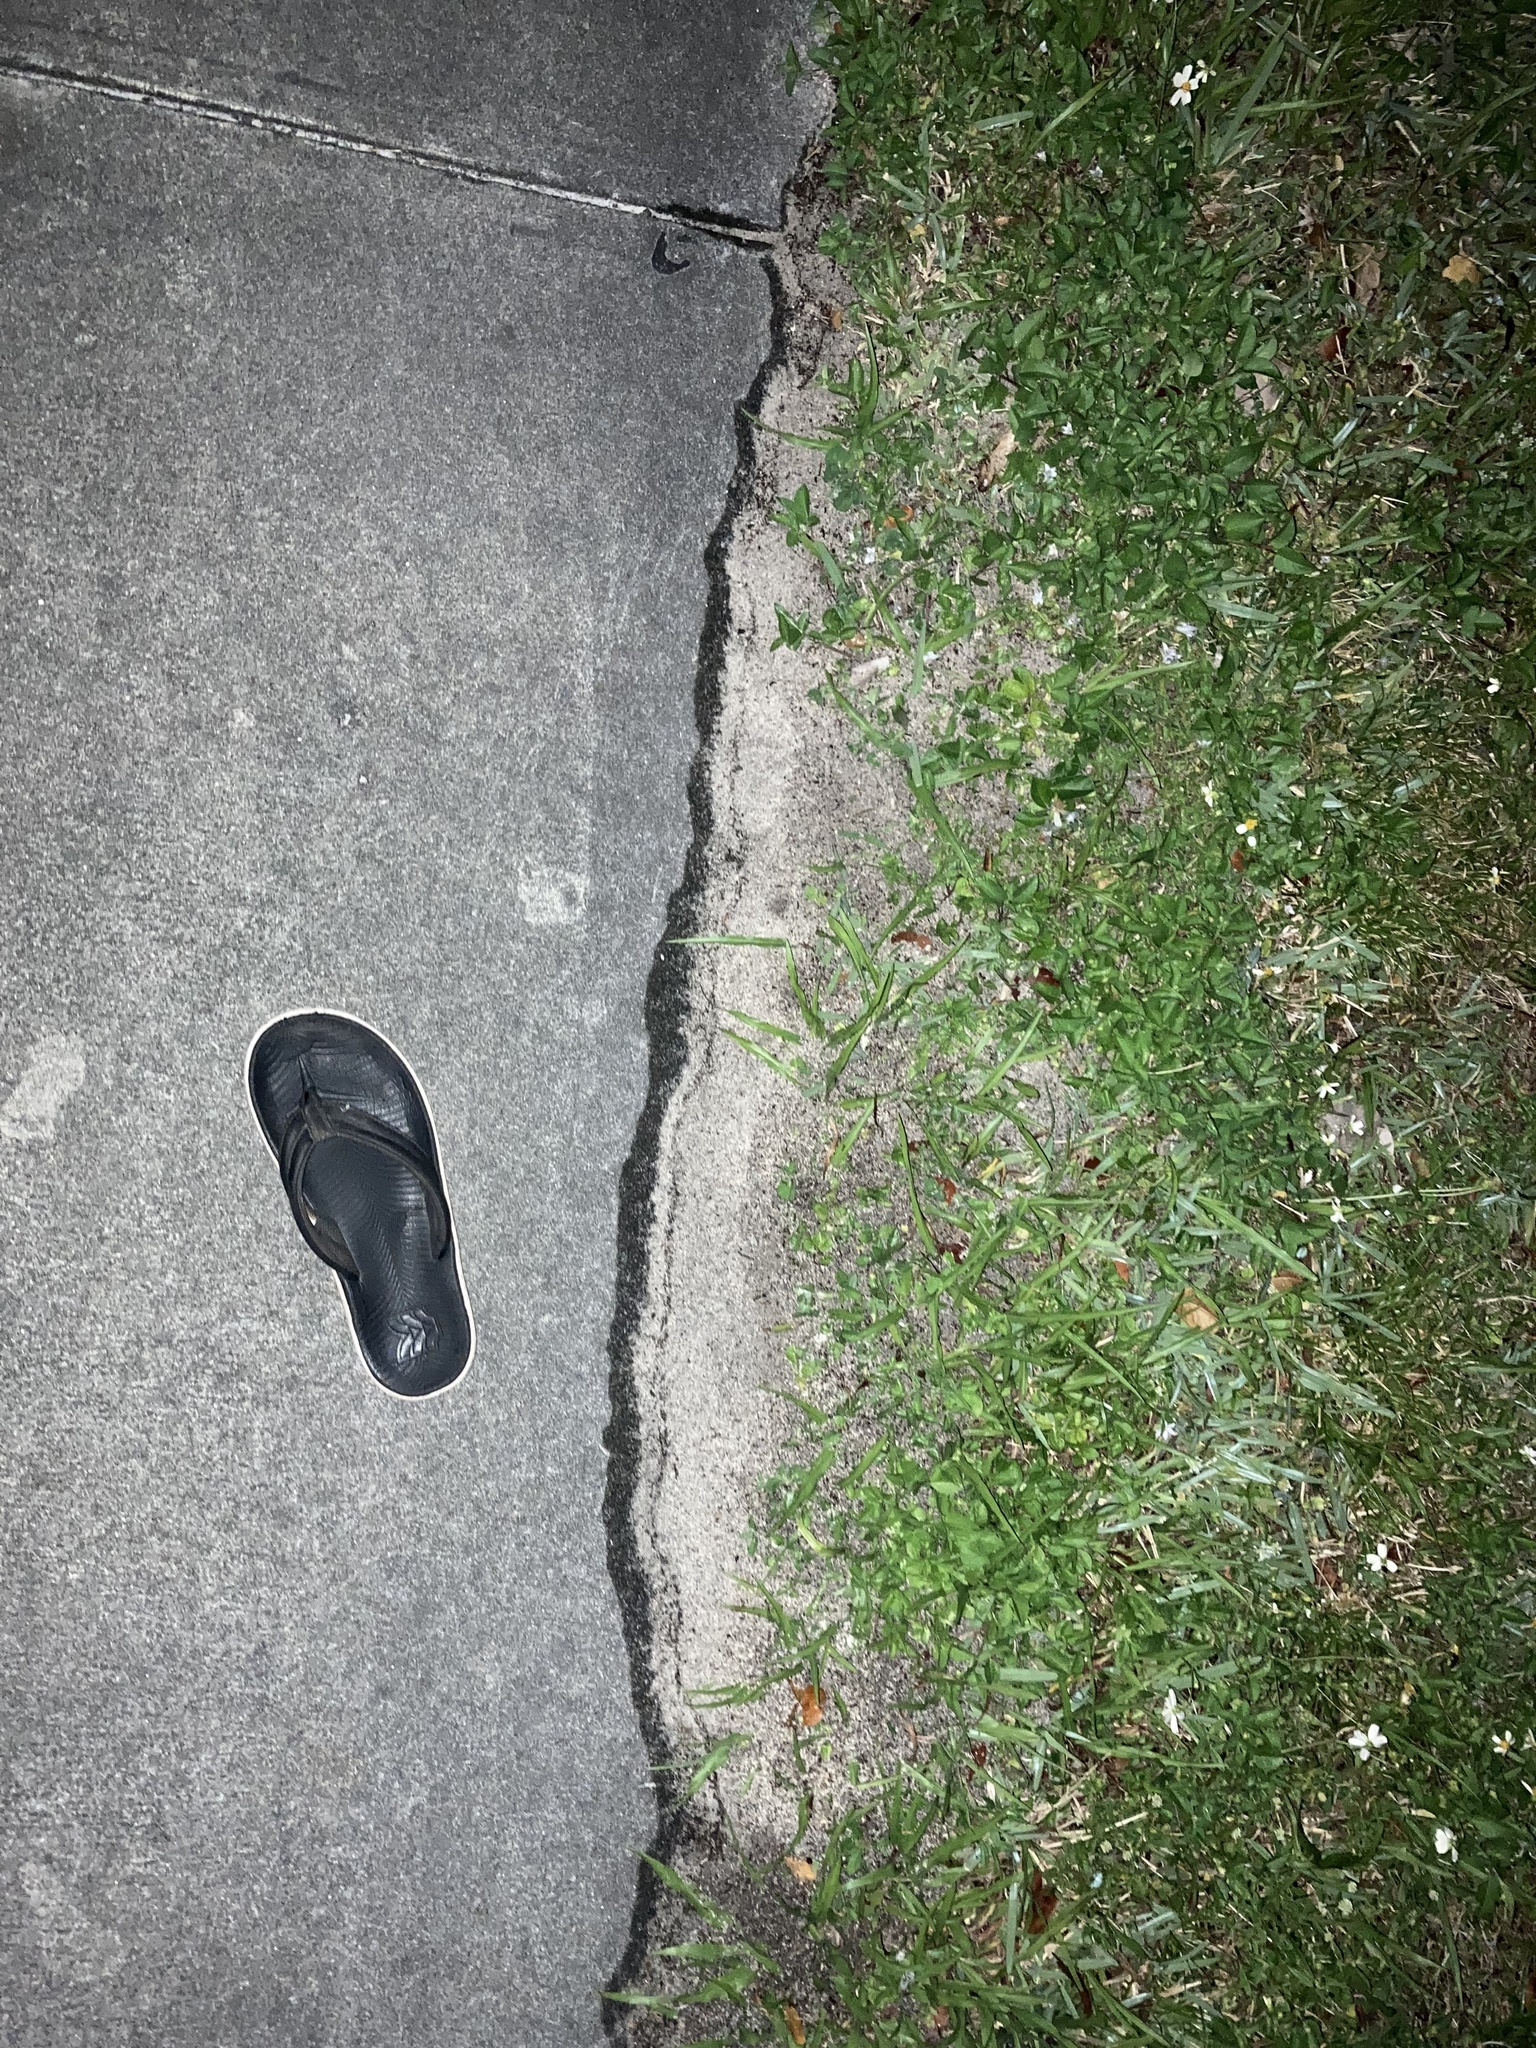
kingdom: Animalia
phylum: Arthropoda
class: Insecta
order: Hymenoptera
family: Formicidae
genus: Solenopsis
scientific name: Solenopsis invicta
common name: Red imported fire ant
